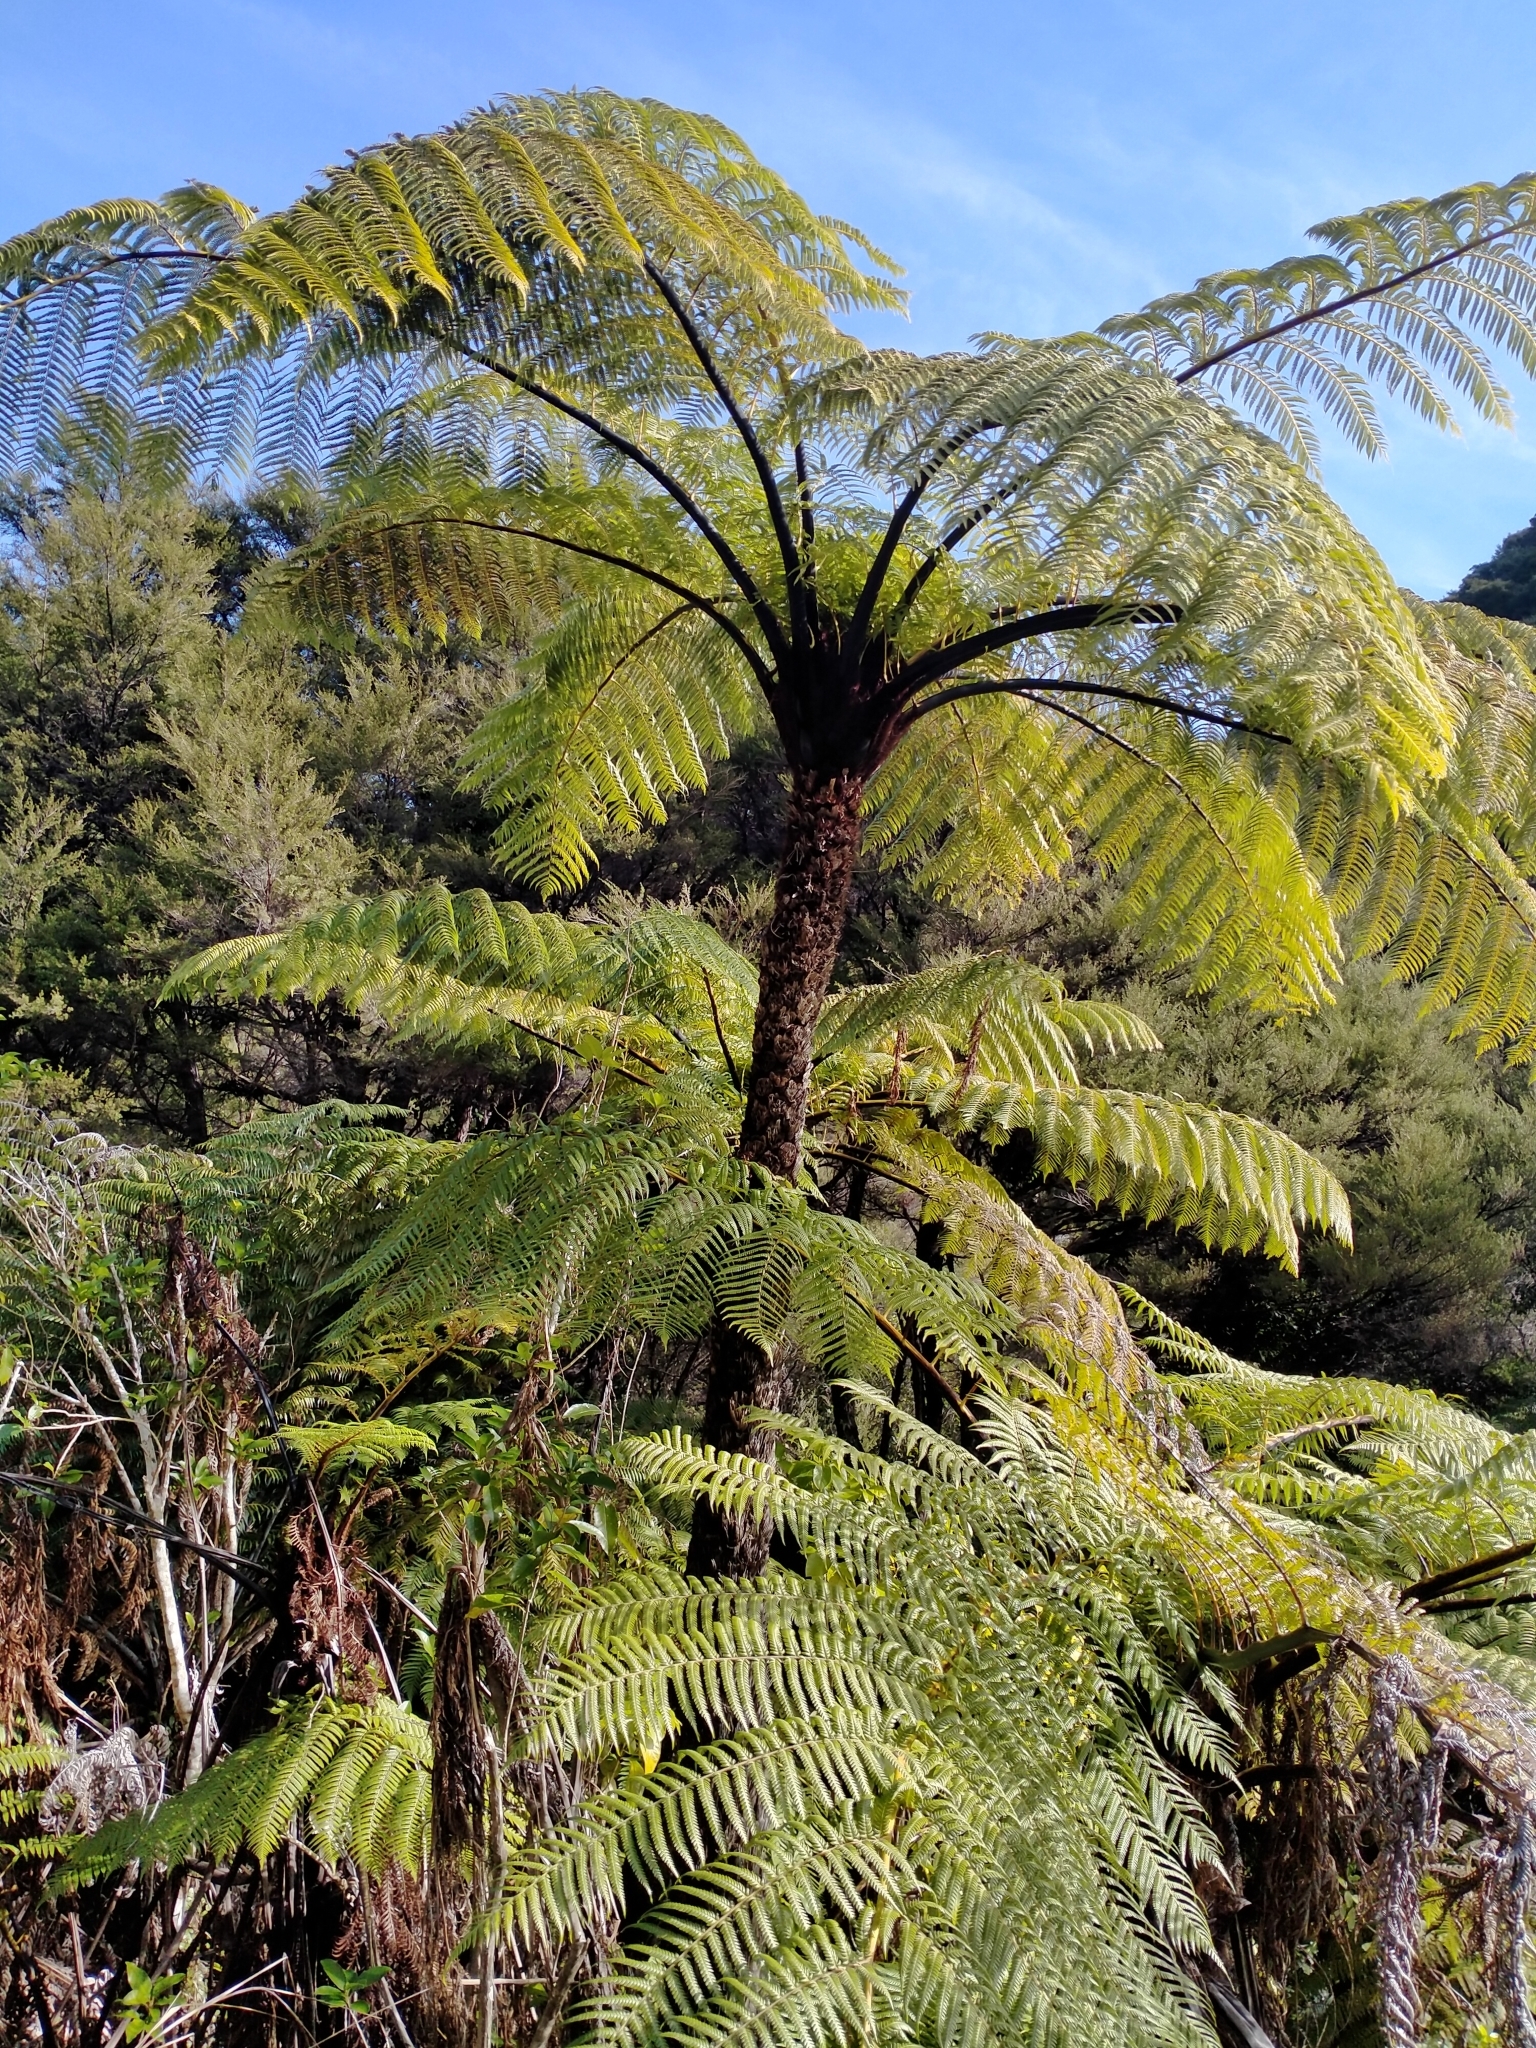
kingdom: Plantae
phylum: Tracheophyta
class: Polypodiopsida
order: Cyatheales
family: Cyatheaceae
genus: Sphaeropteris
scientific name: Sphaeropteris medullaris
